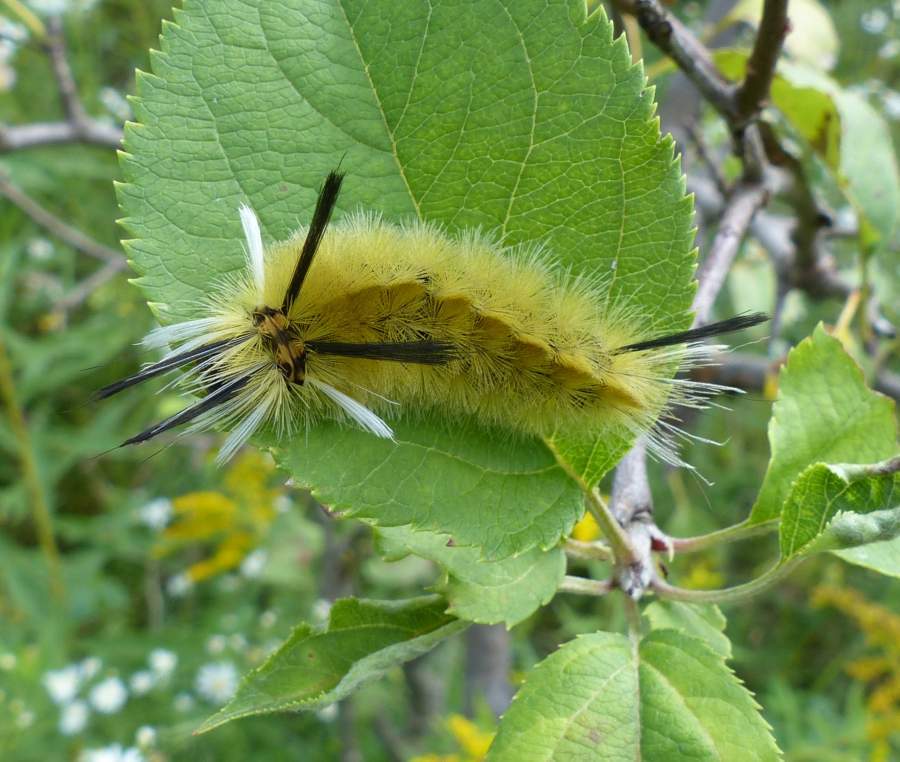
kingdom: Animalia
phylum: Arthropoda
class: Insecta
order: Lepidoptera
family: Erebidae
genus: Halysidota
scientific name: Halysidota tessellaris
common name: Banded tussock moth
